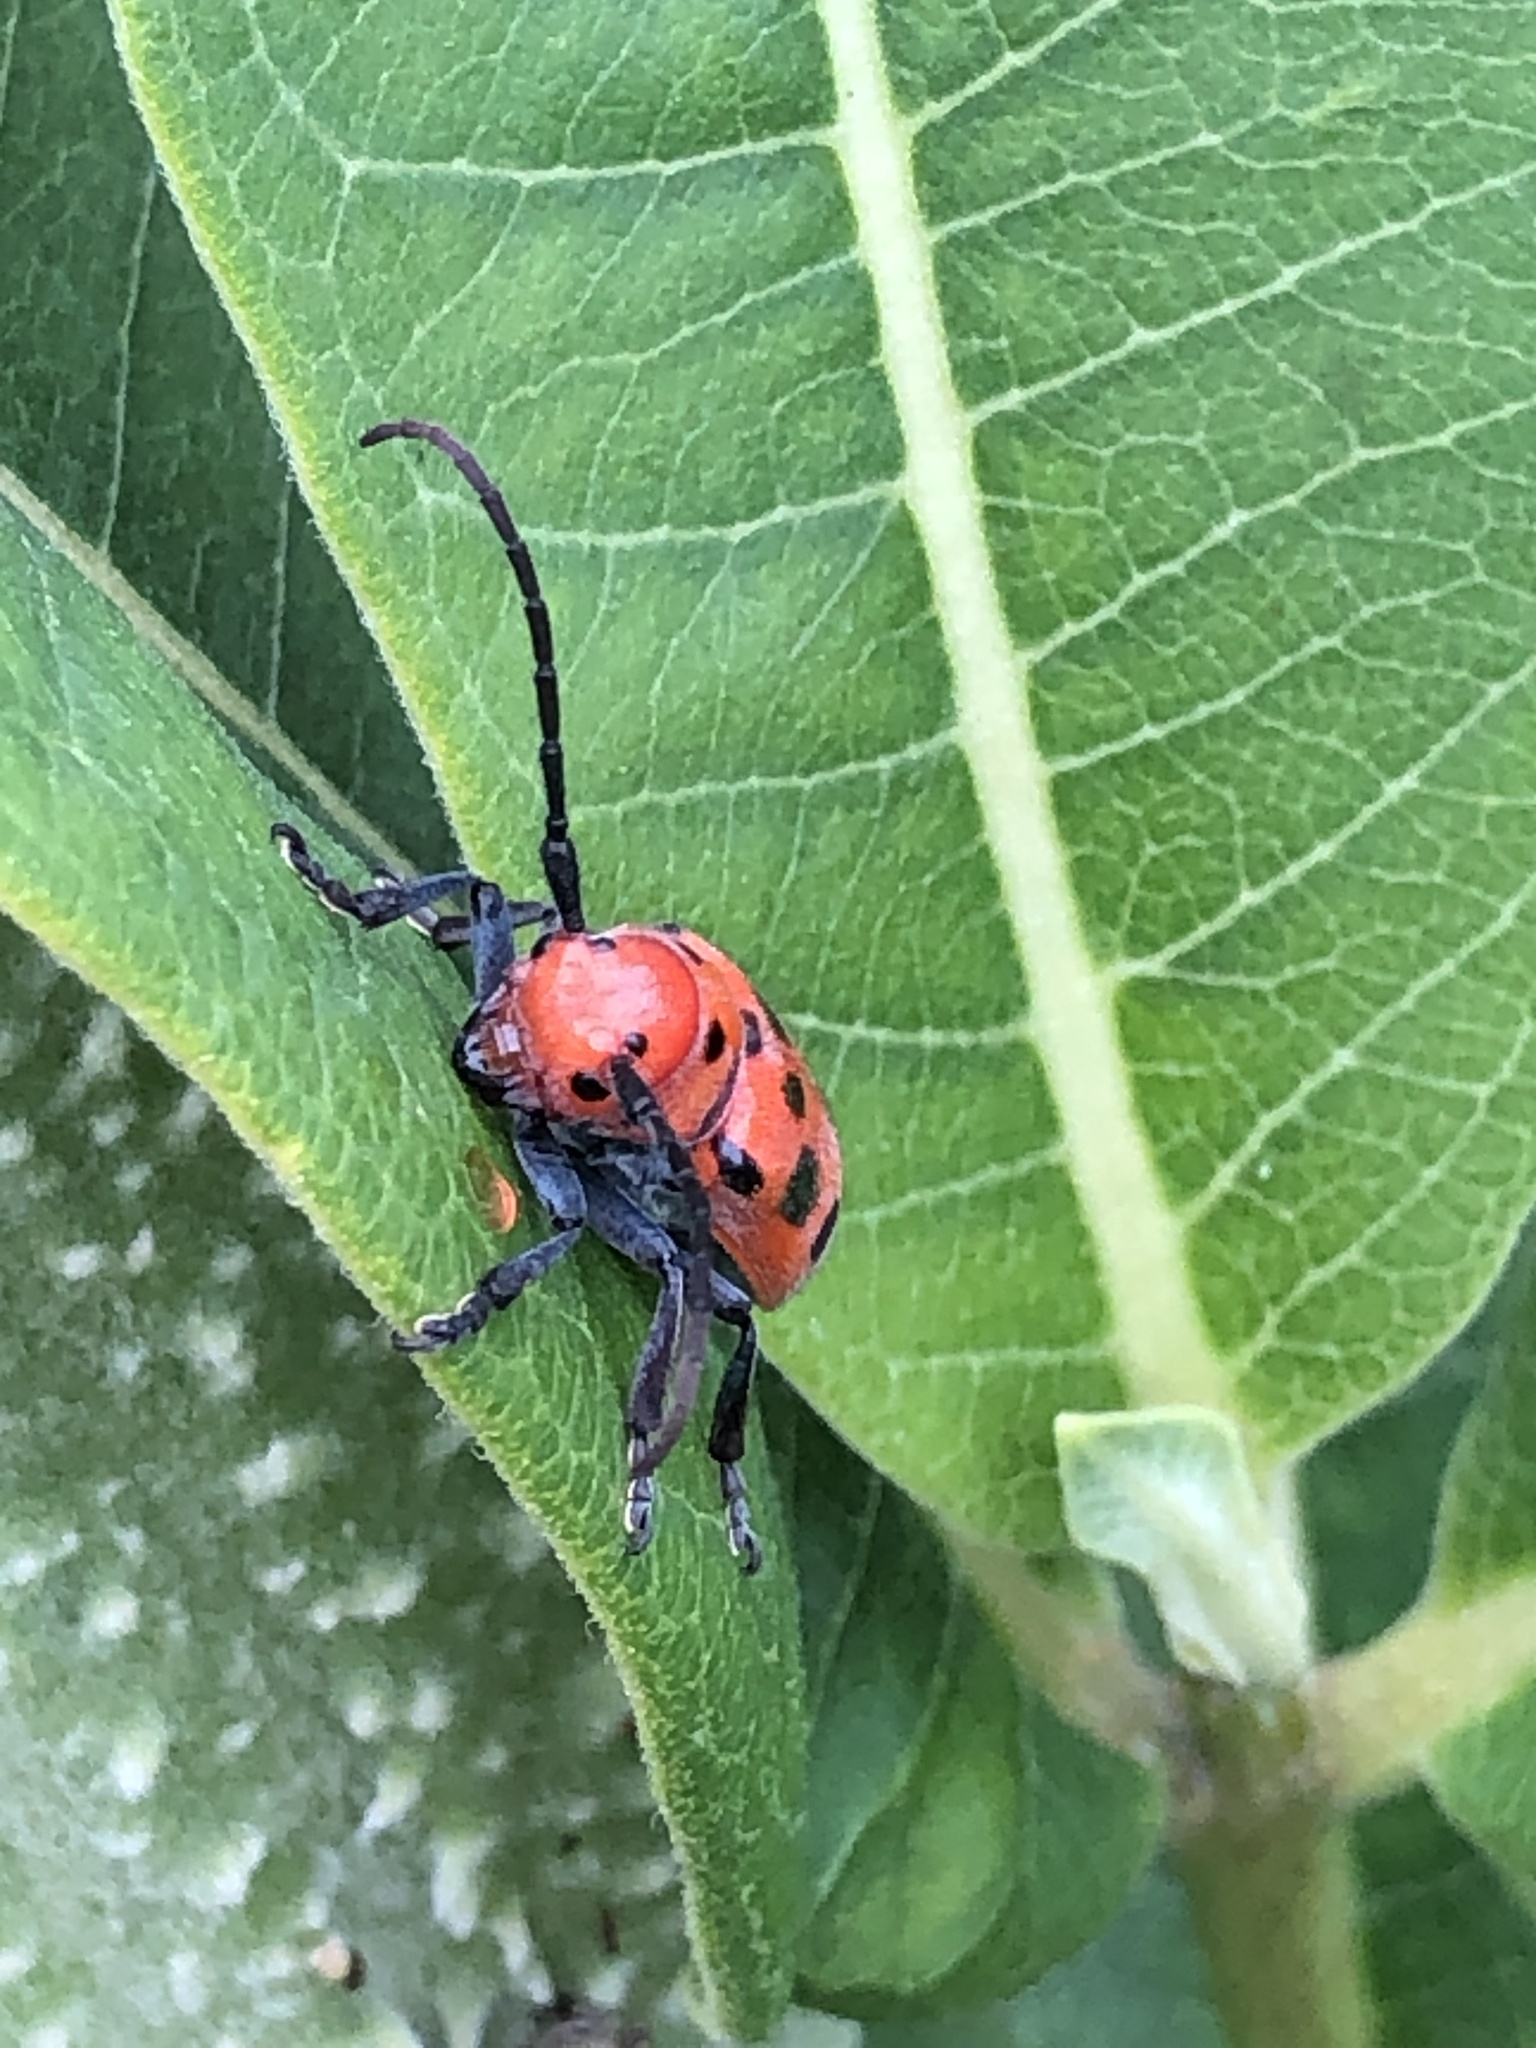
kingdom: Animalia
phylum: Arthropoda
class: Insecta
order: Coleoptera
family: Cerambycidae
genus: Tetraopes
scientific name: Tetraopes tetrophthalmus
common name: Red milkweed beetle
